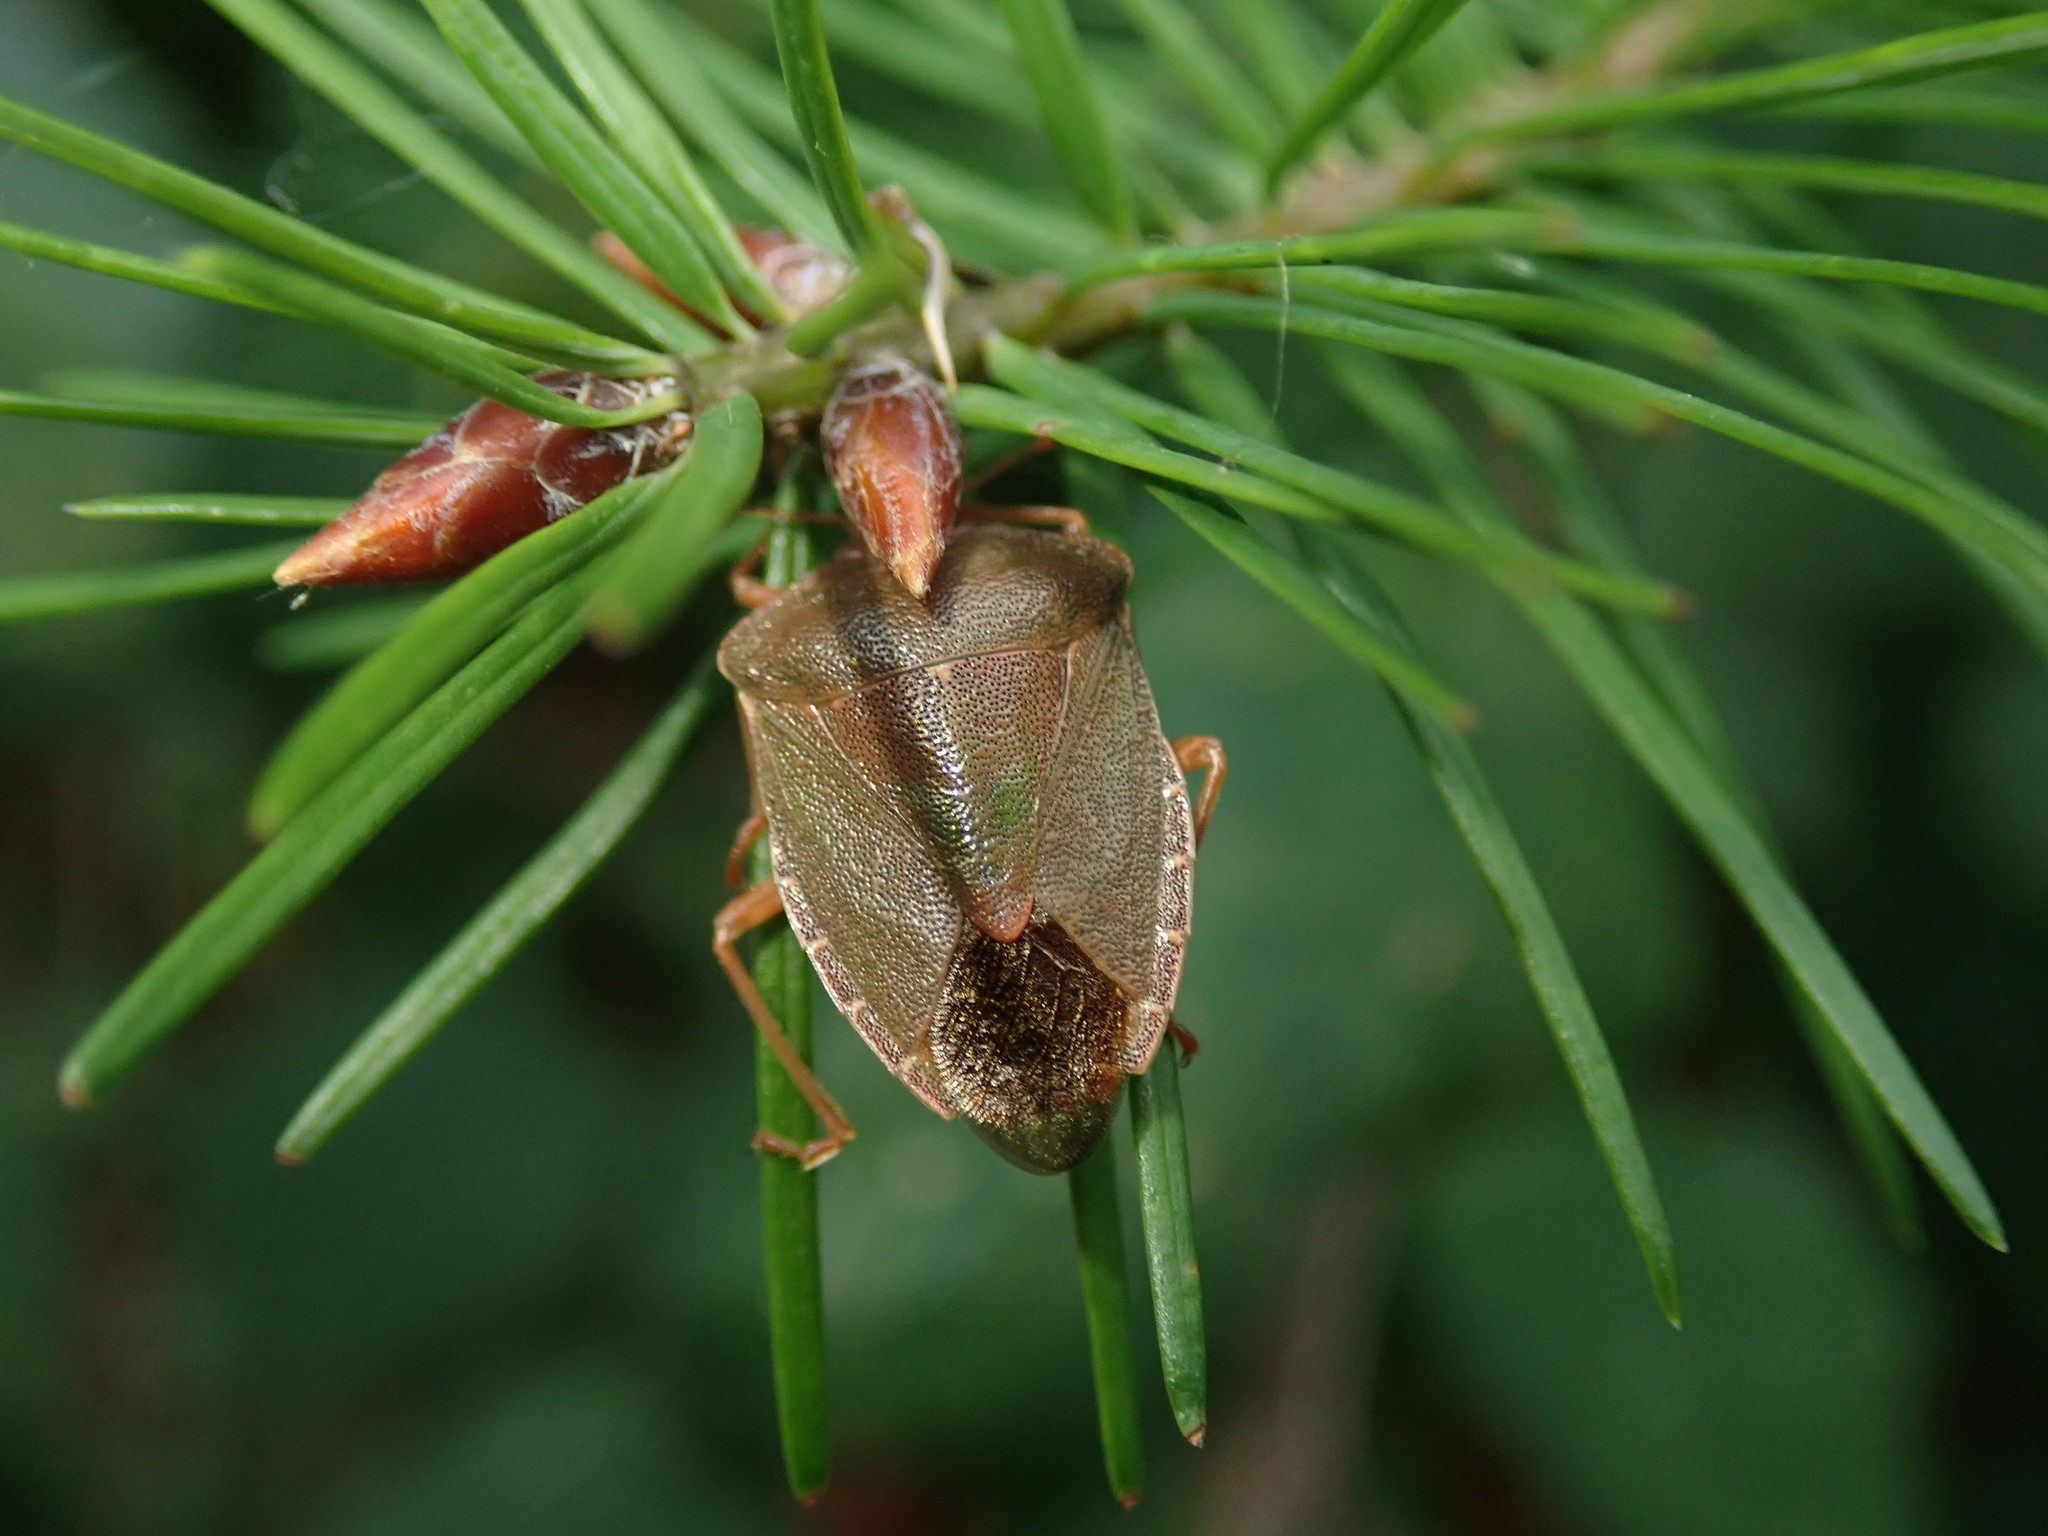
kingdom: Animalia
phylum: Arthropoda
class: Insecta
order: Hemiptera
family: Pentatomidae
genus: Palomena
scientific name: Palomena prasina
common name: Green shieldbug
